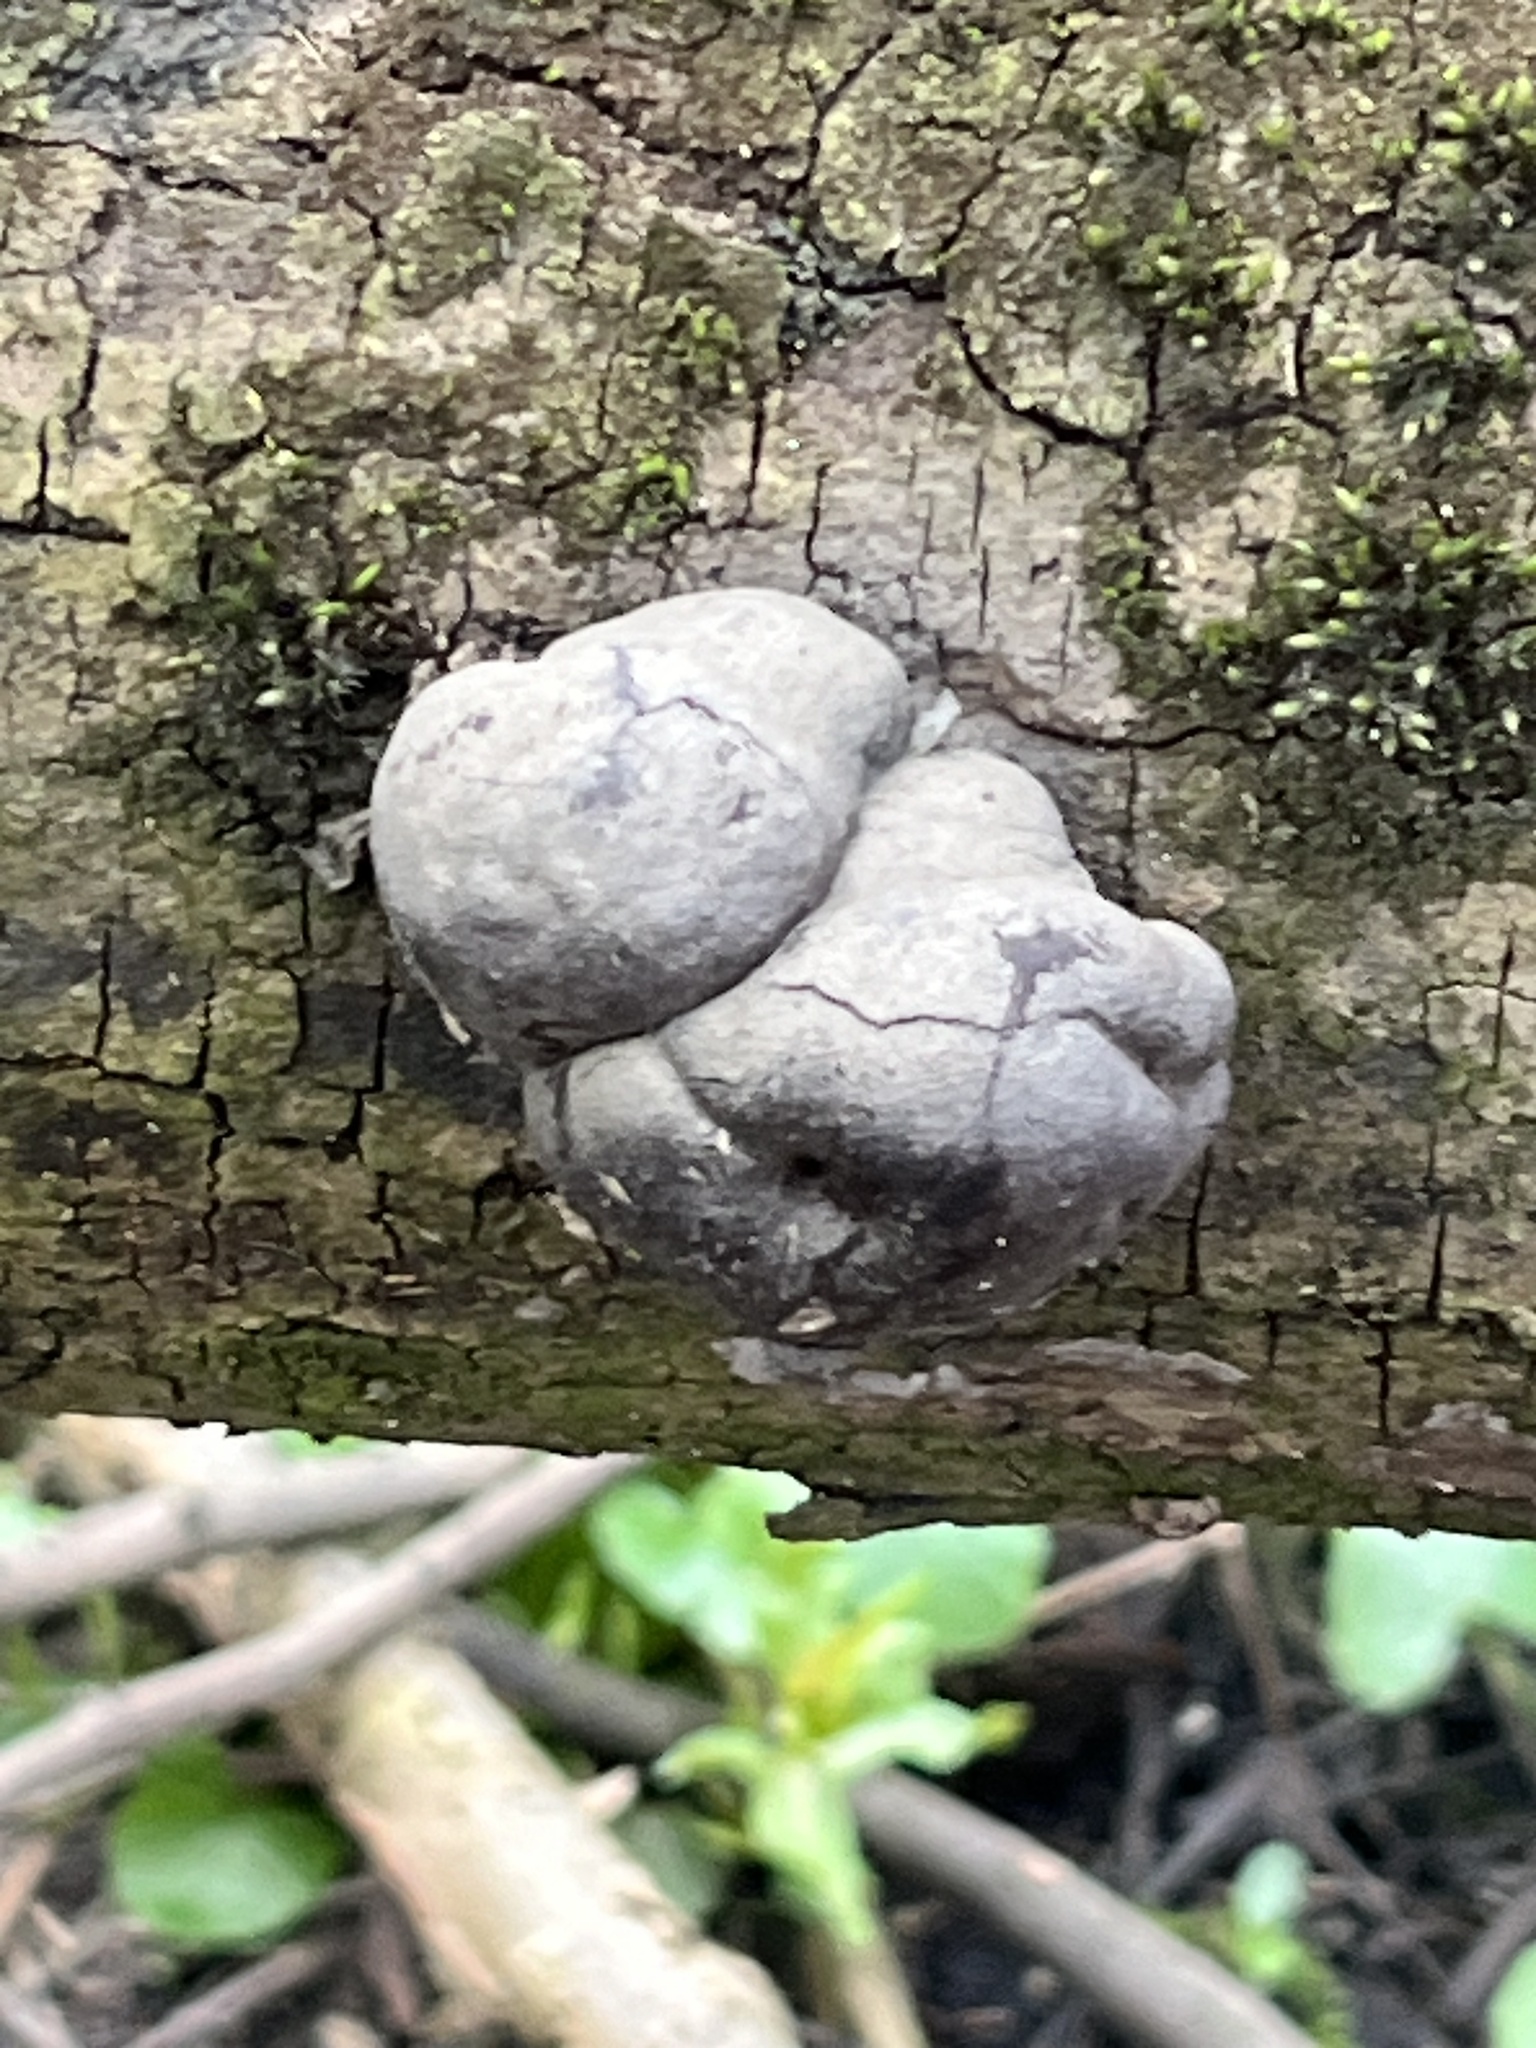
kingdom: Fungi
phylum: Ascomycota
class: Sordariomycetes
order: Xylariales
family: Hypoxylaceae
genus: Daldinia
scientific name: Daldinia concentrica
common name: Cramp balls
